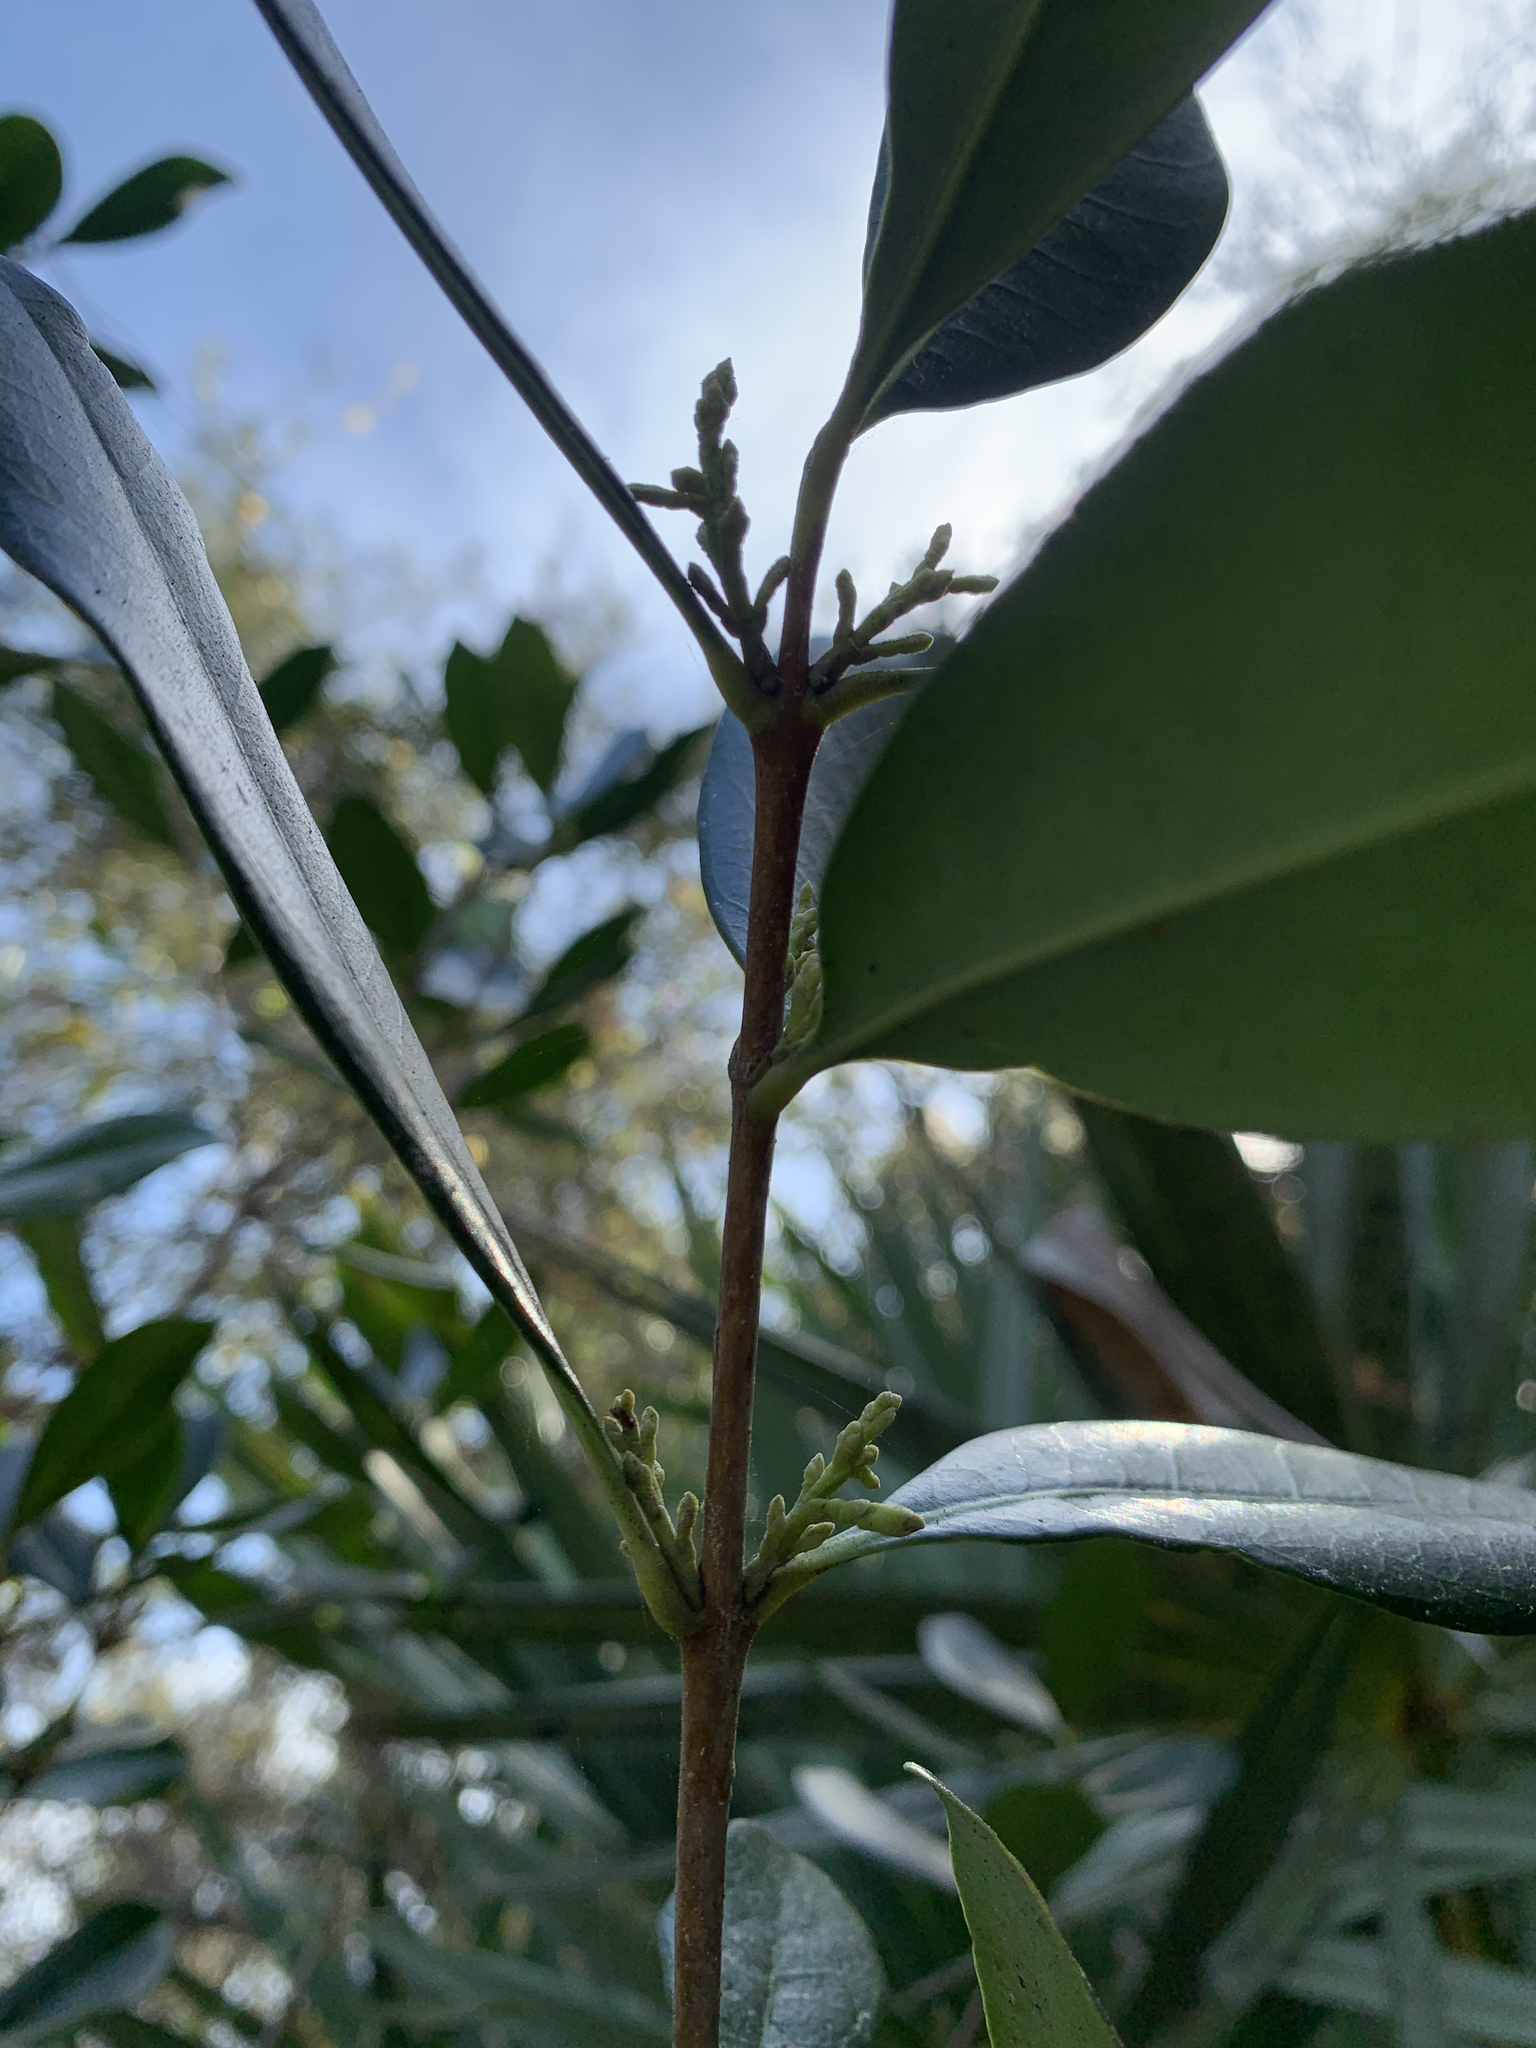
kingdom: Plantae
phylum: Tracheophyta
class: Magnoliopsida
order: Lamiales
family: Oleaceae
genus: Cartrema
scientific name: Cartrema americana
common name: Devilwood
